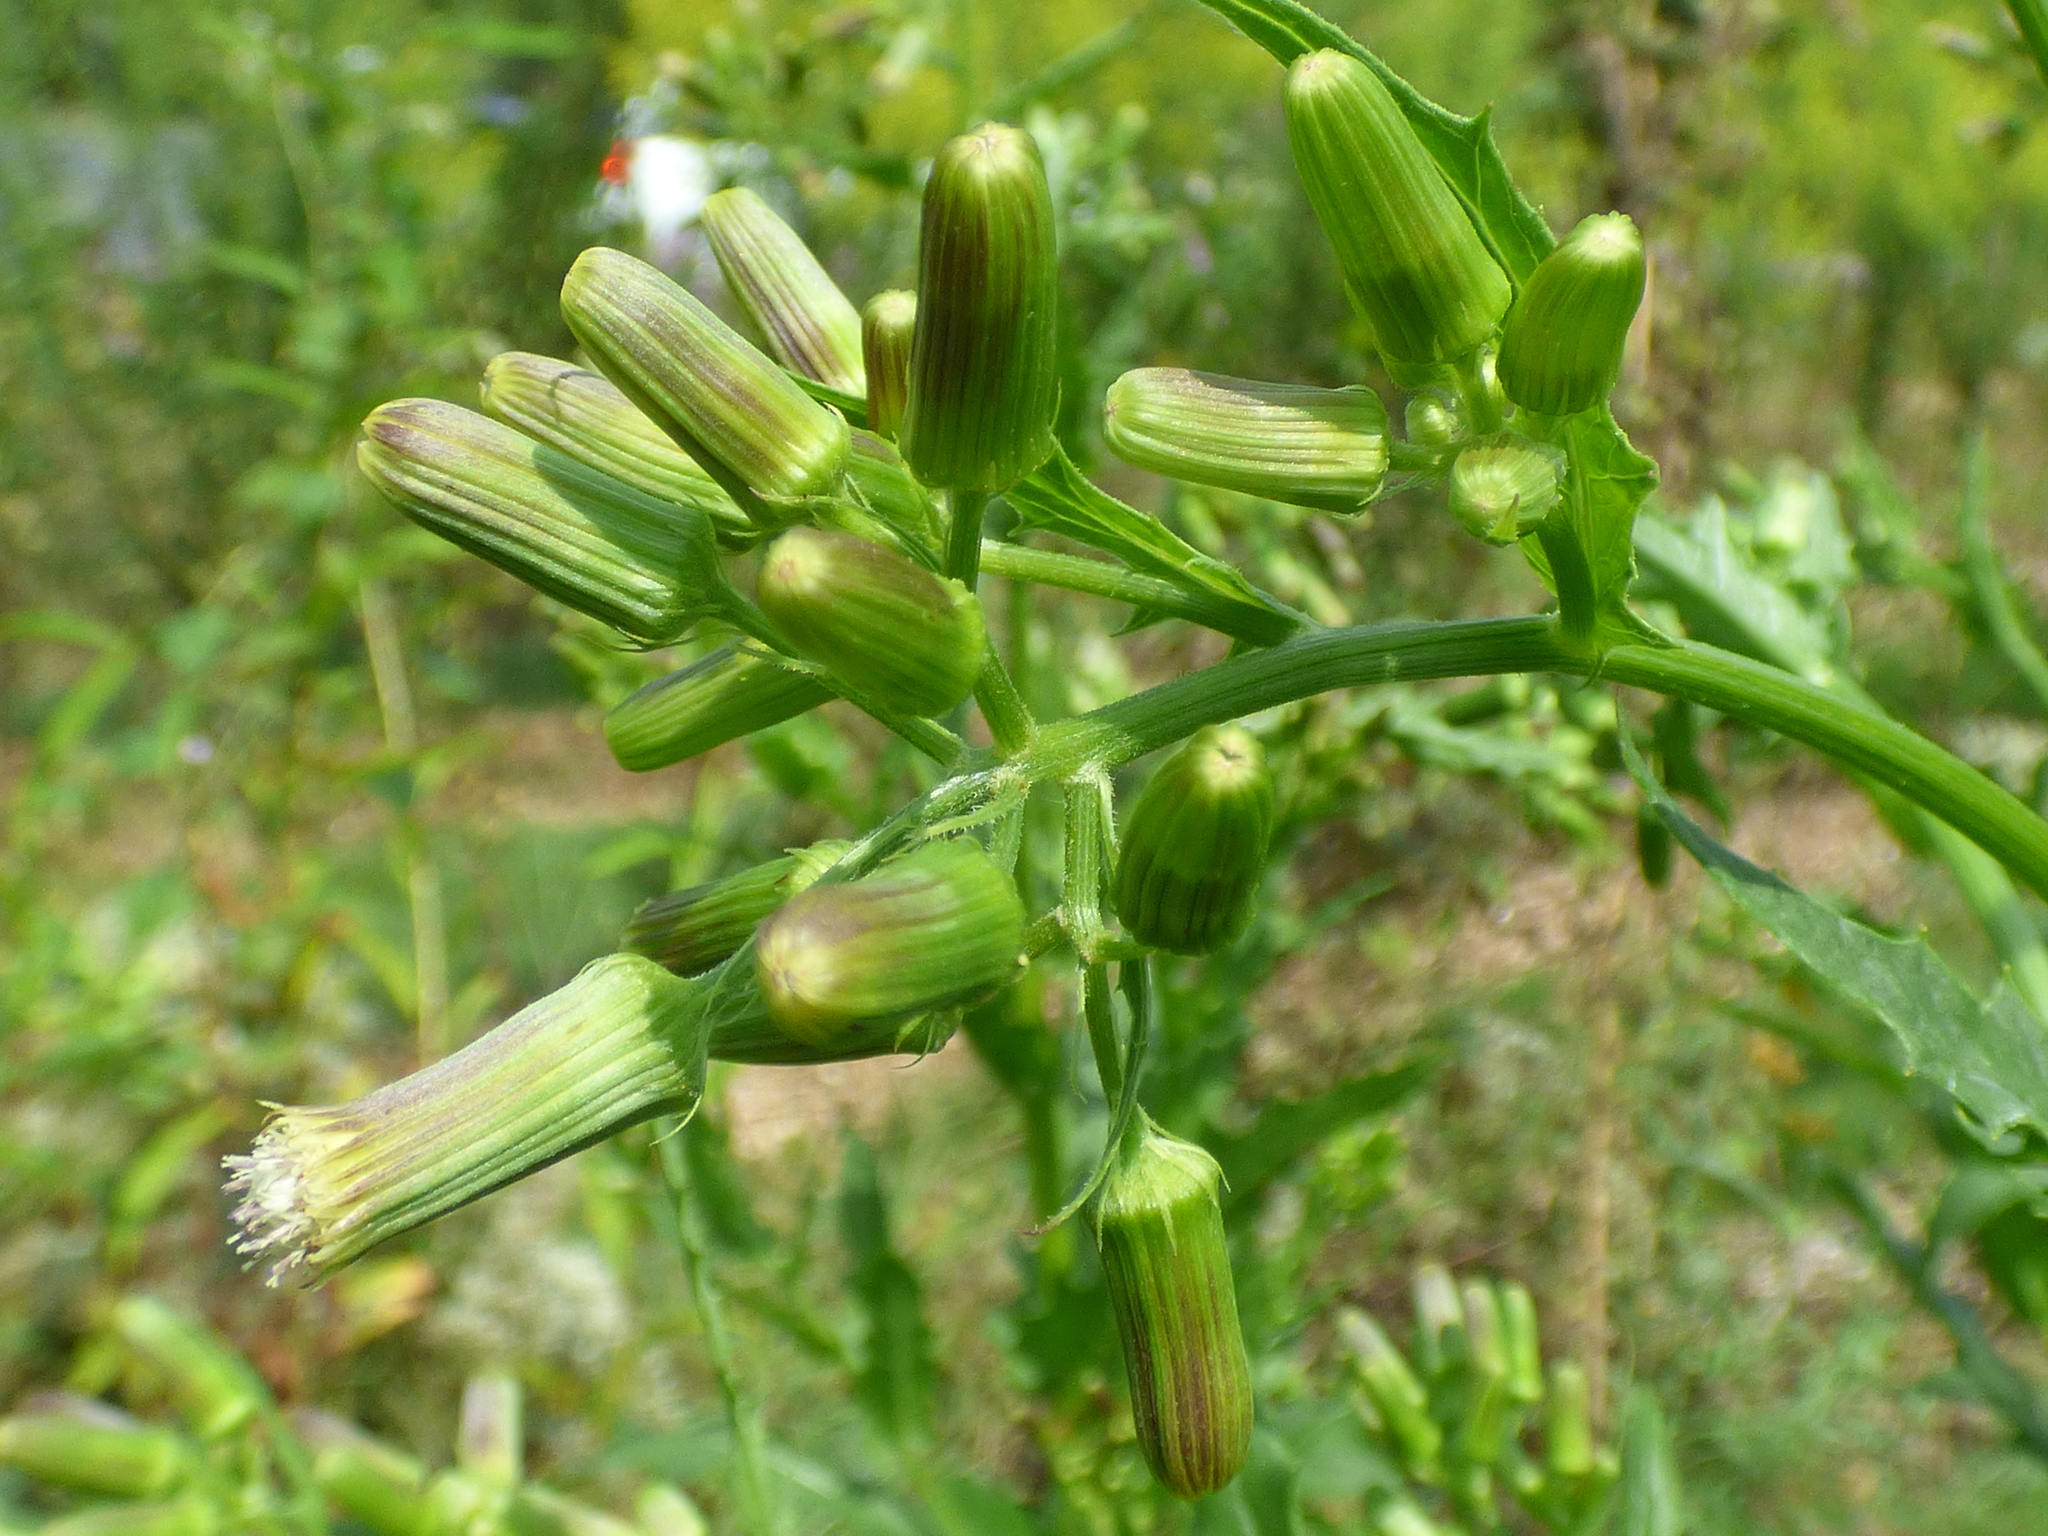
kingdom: Plantae
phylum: Tracheophyta
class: Magnoliopsida
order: Asterales
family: Asteraceae
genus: Erechtites
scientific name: Erechtites hieraciifolius
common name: American burnweed
